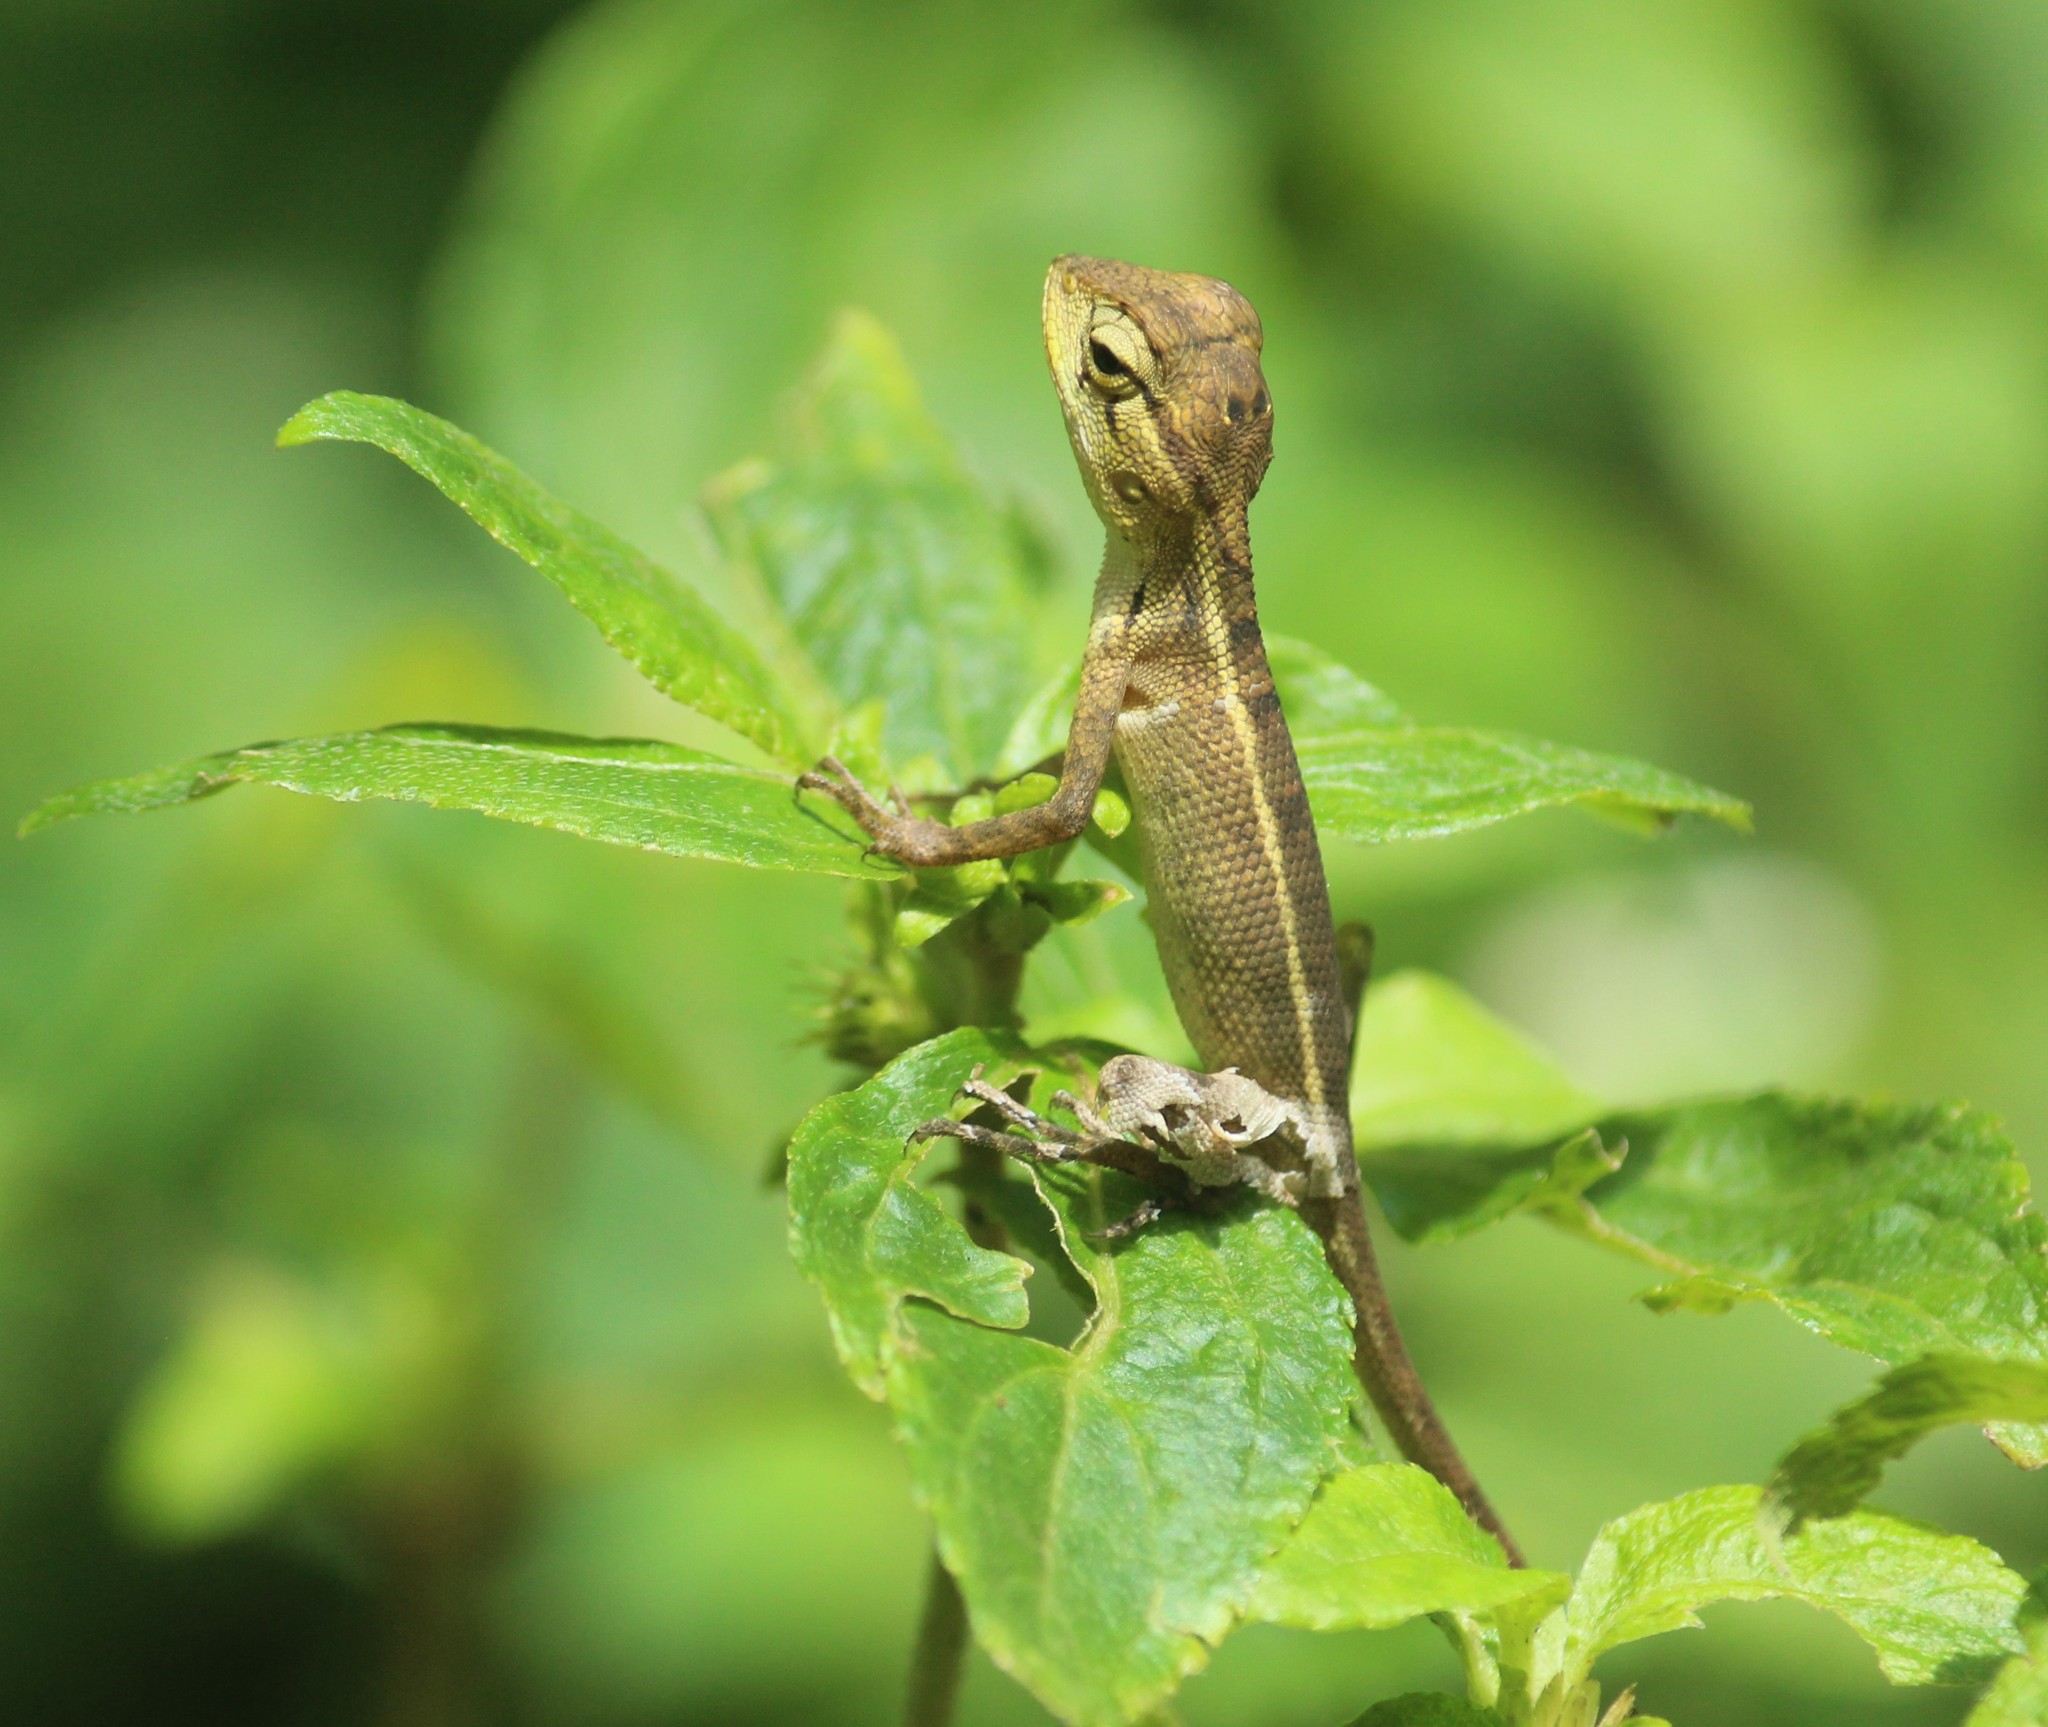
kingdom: Animalia
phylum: Chordata
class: Squamata
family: Agamidae
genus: Calotes
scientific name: Calotes versicolor
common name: Oriental garden lizard
